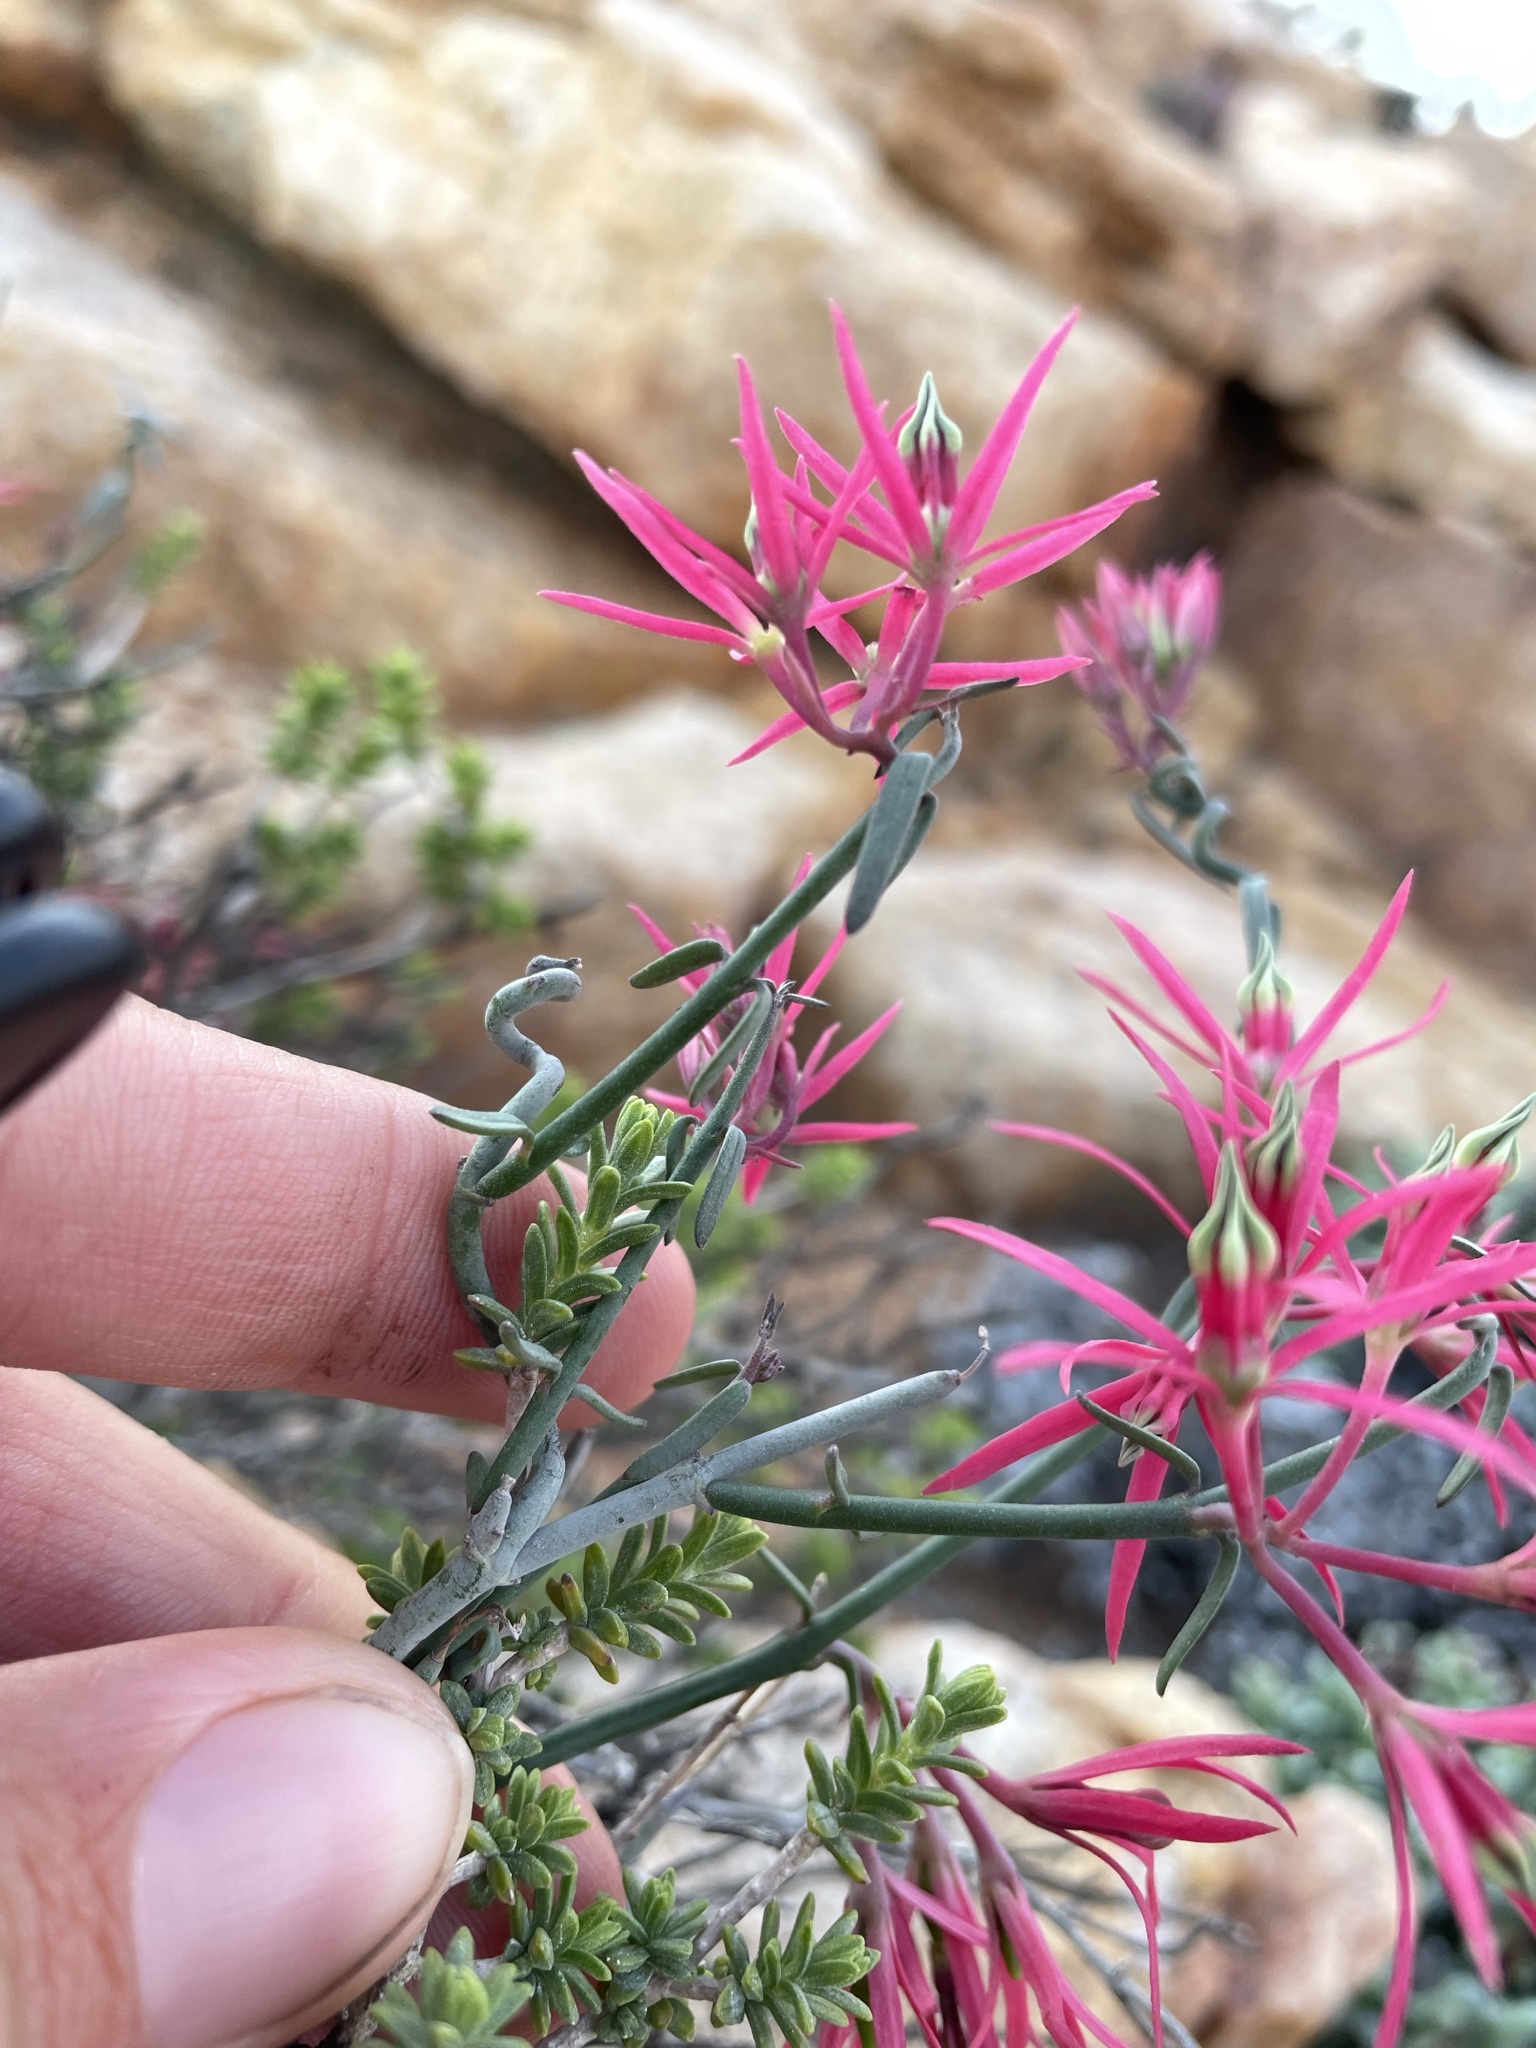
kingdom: Plantae
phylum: Tracheophyta
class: Magnoliopsida
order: Gentianales
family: Apocynaceae
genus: Microloma
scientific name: Microloma calycinum
